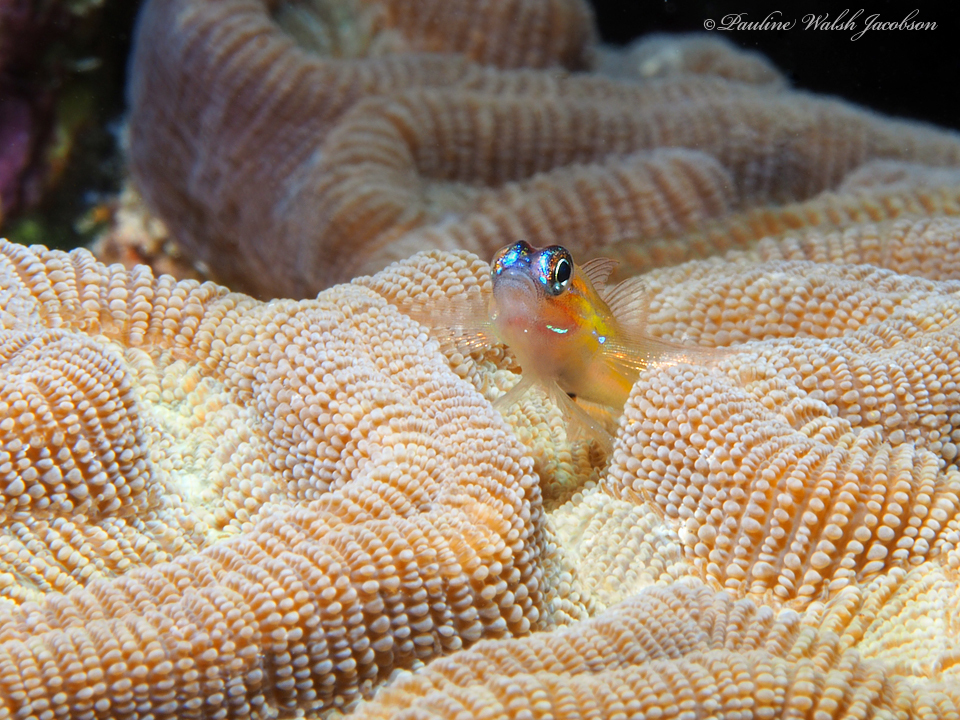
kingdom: Animalia
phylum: Chordata
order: Perciformes
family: Gobiidae
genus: Coryphopterus
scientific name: Coryphopterus lipernes
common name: Peppermint goby
